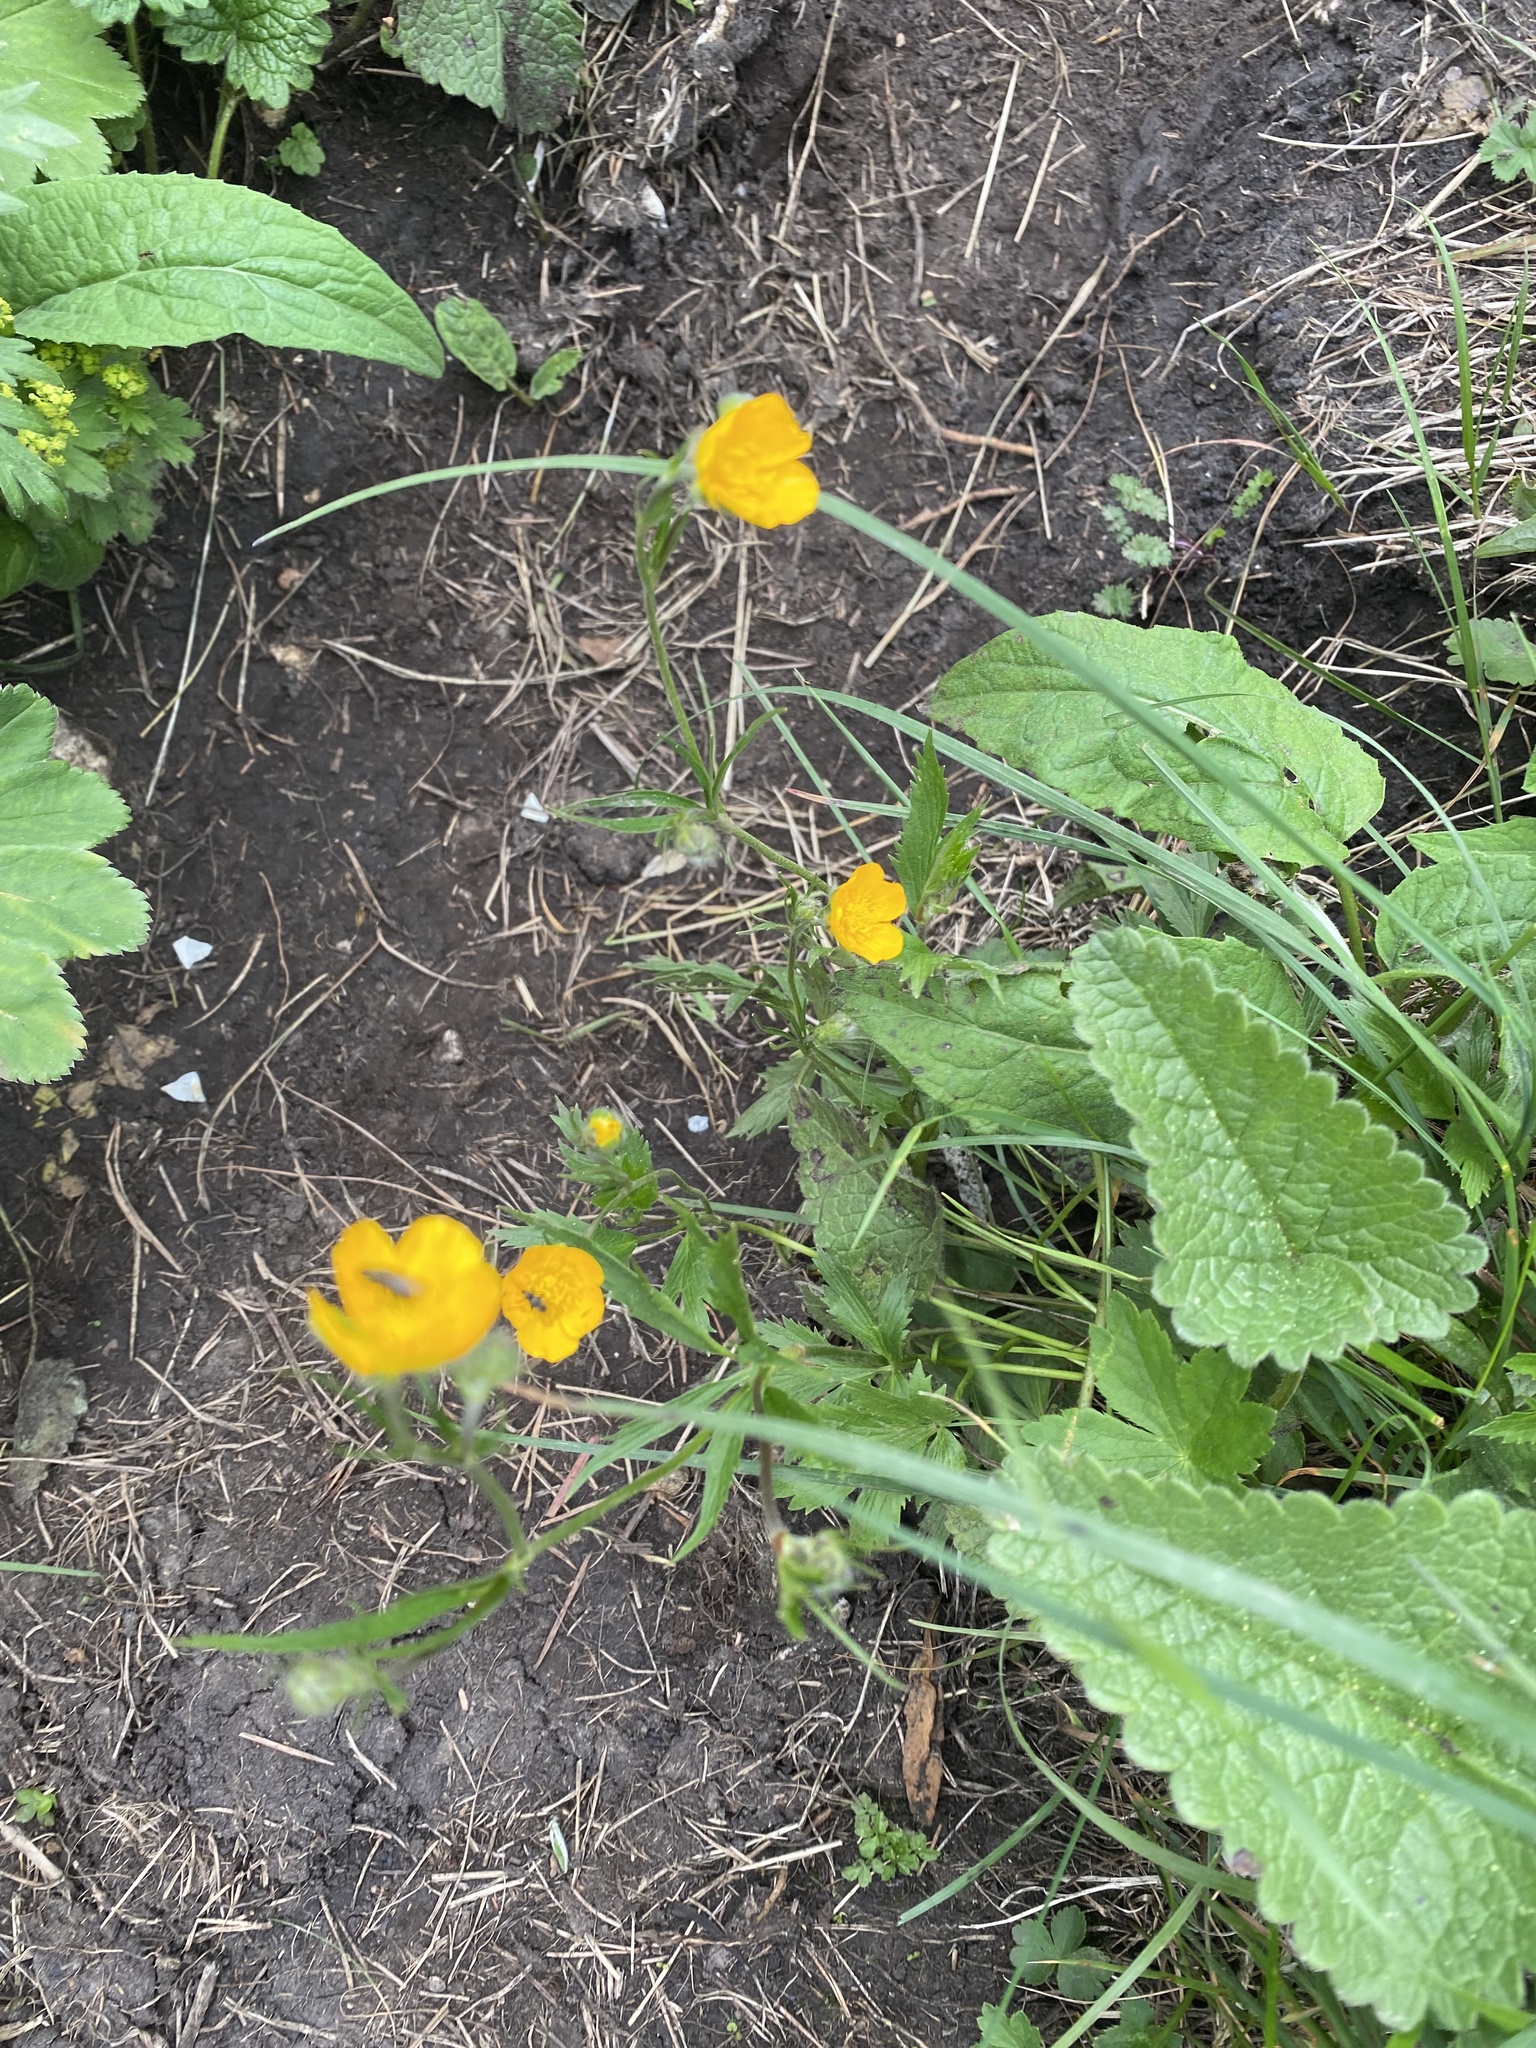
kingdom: Plantae
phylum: Tracheophyta
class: Magnoliopsida
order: Ranunculales
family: Ranunculaceae
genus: Ranunculus
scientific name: Ranunculus repens
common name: Creeping buttercup
